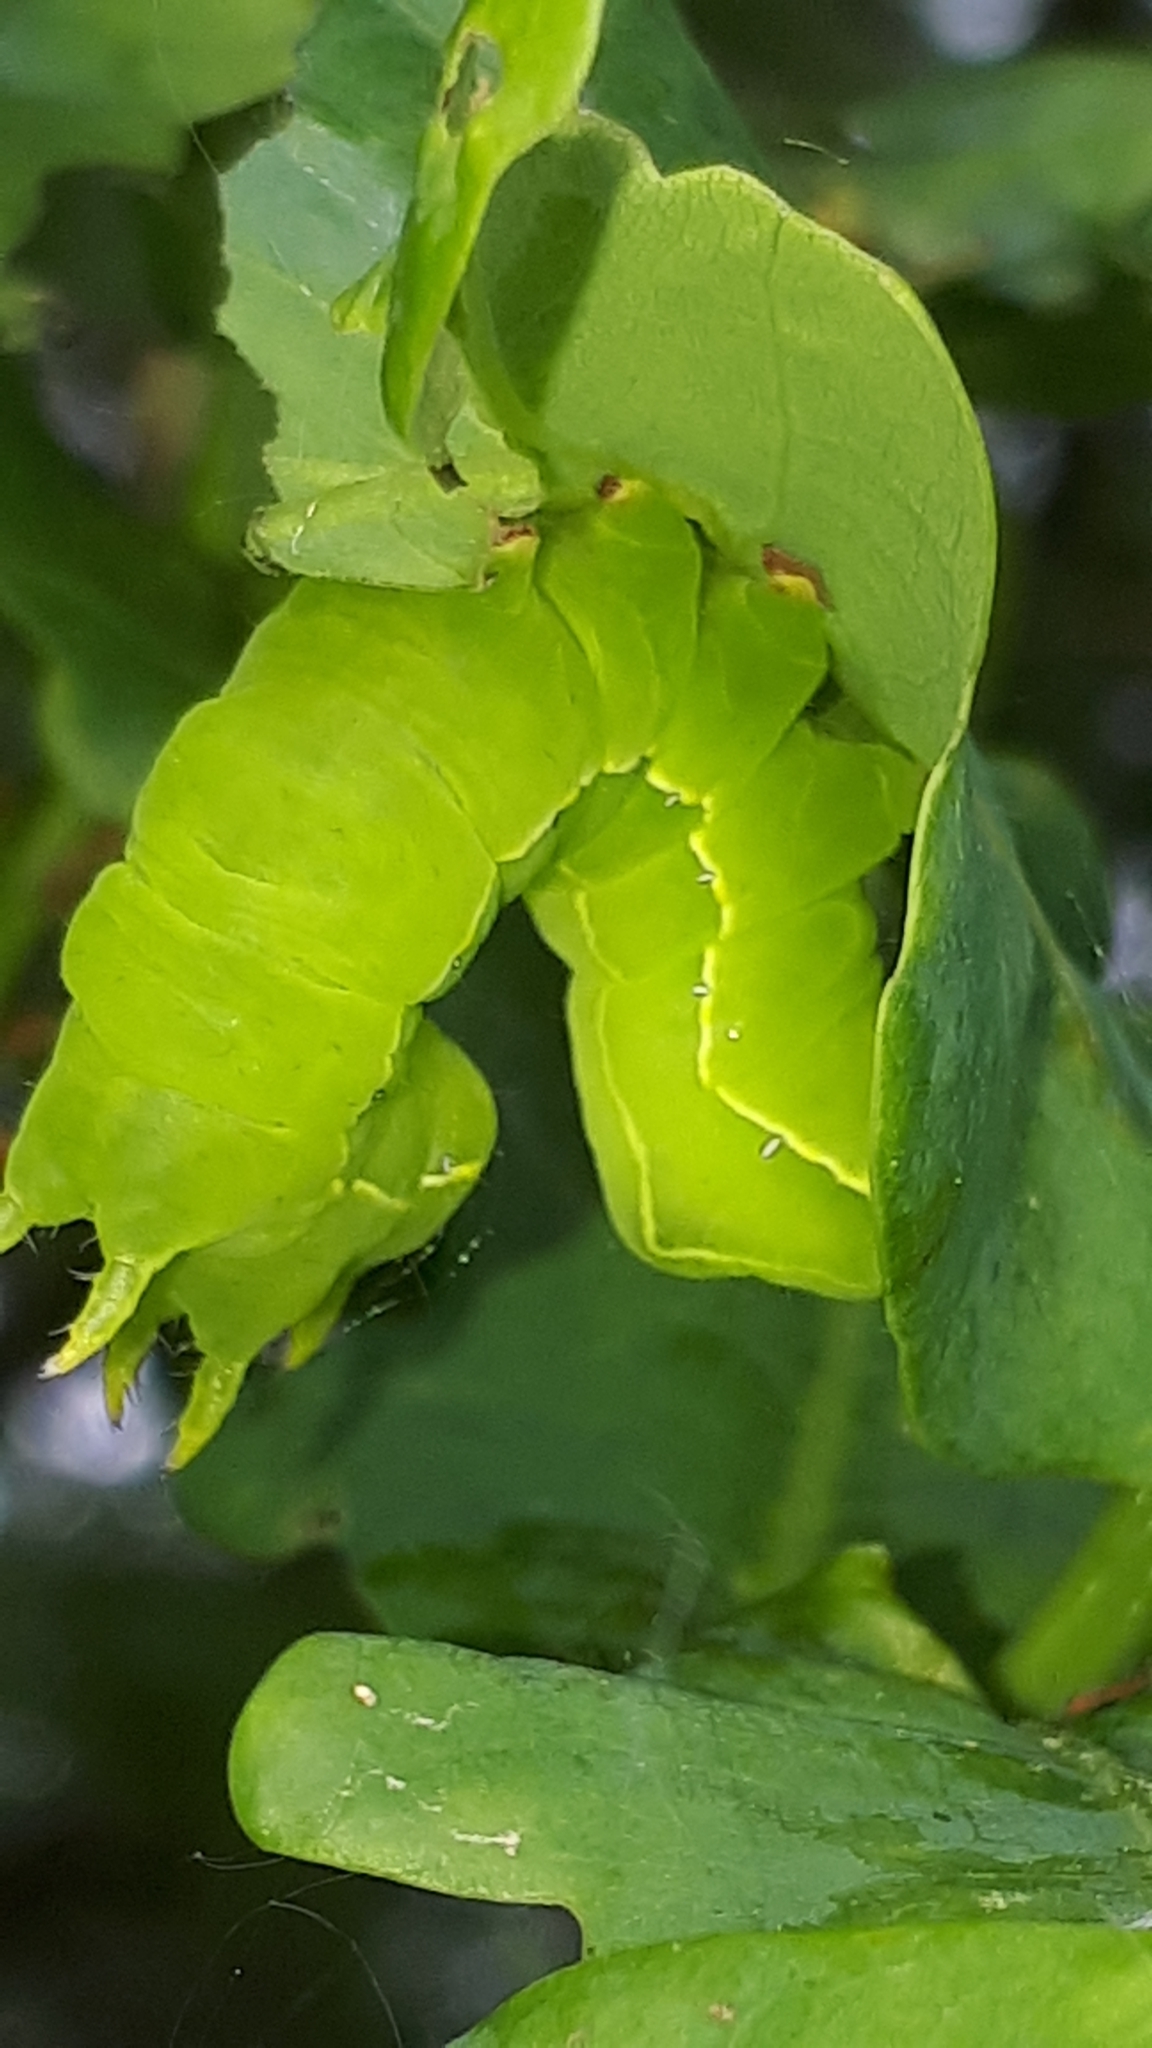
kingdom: Animalia
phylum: Arthropoda
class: Insecta
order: Lepidoptera
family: Noctuidae
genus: Asteroscopus
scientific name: Asteroscopus sphinx
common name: The sprawler
